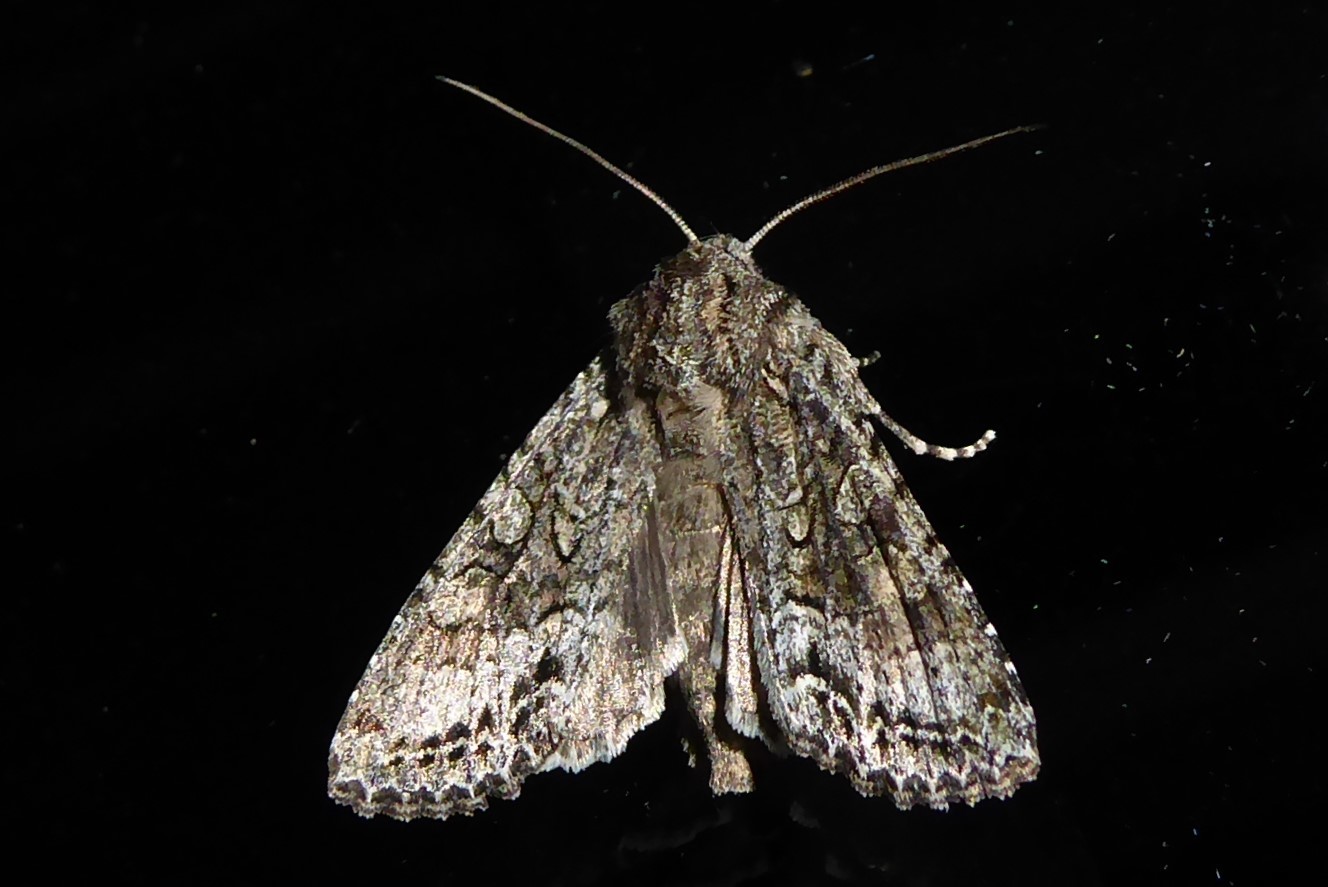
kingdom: Animalia
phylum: Arthropoda
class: Insecta
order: Lepidoptera
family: Noctuidae
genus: Ichneutica
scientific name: Ichneutica mutans
